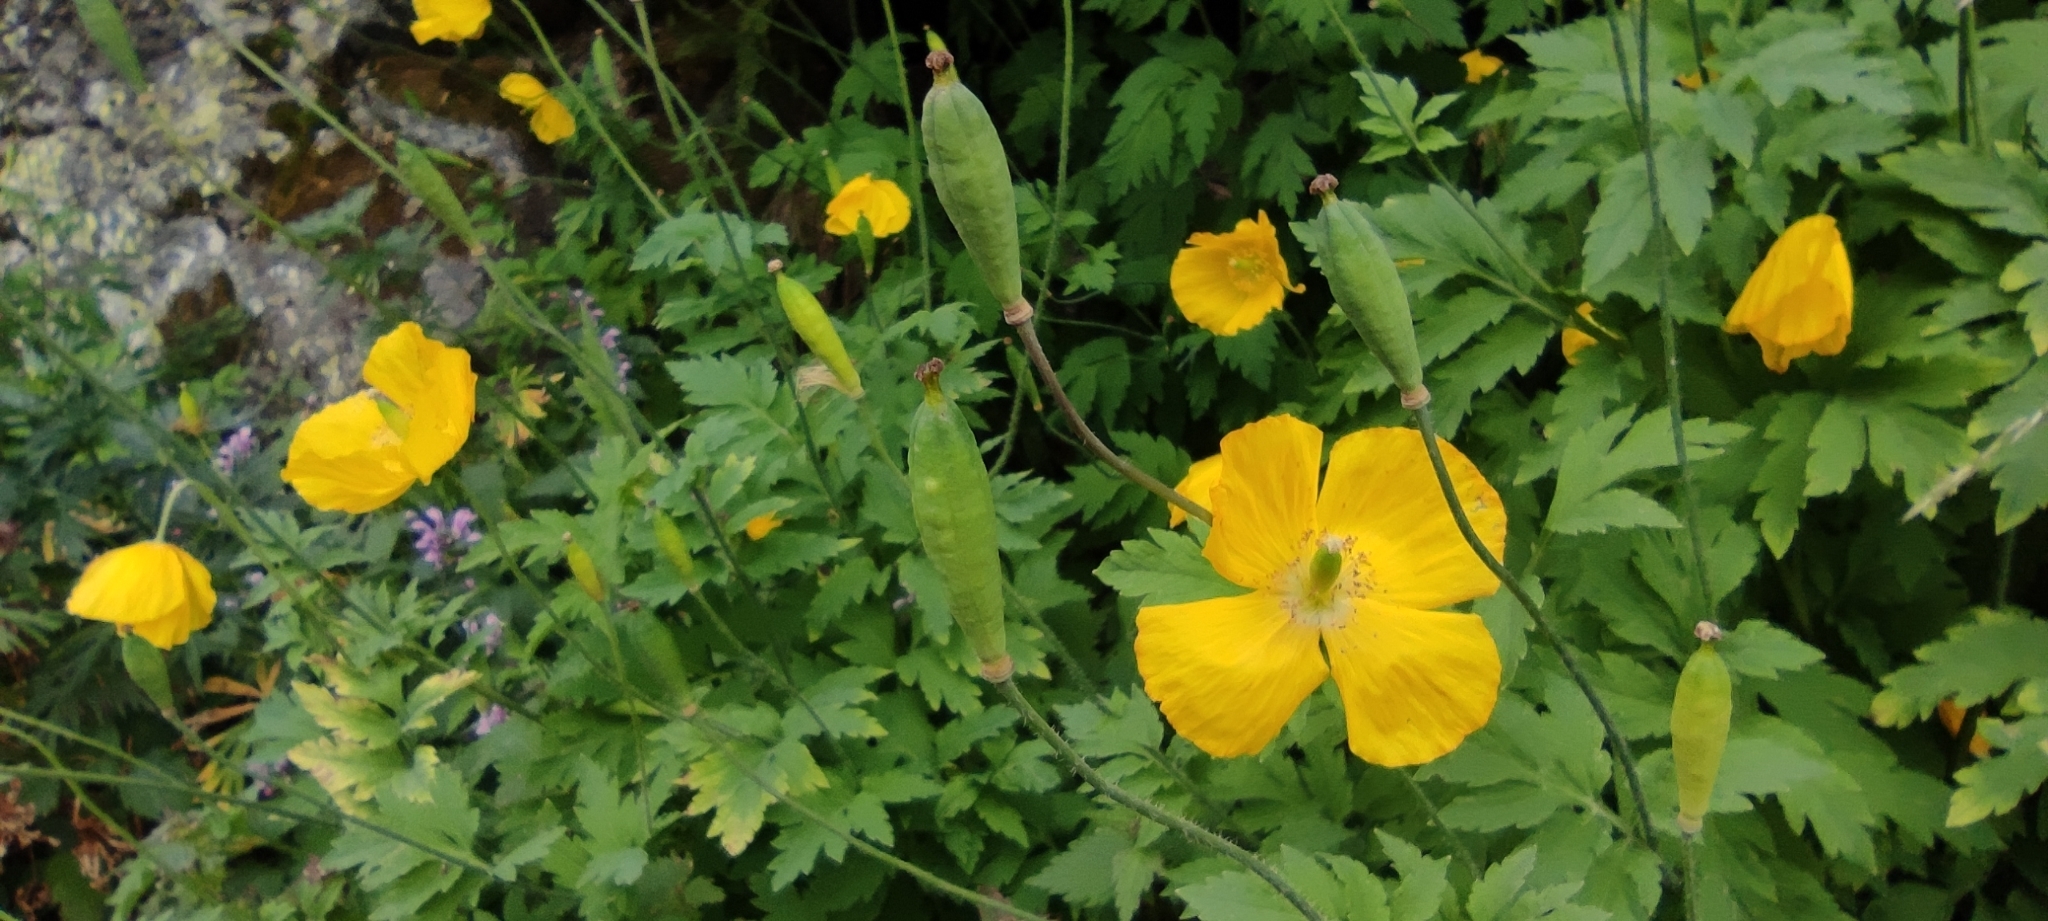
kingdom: Plantae
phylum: Tracheophyta
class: Magnoliopsida
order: Ranunculales
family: Papaveraceae
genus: Papaver
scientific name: Papaver cambricum
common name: Poppy
